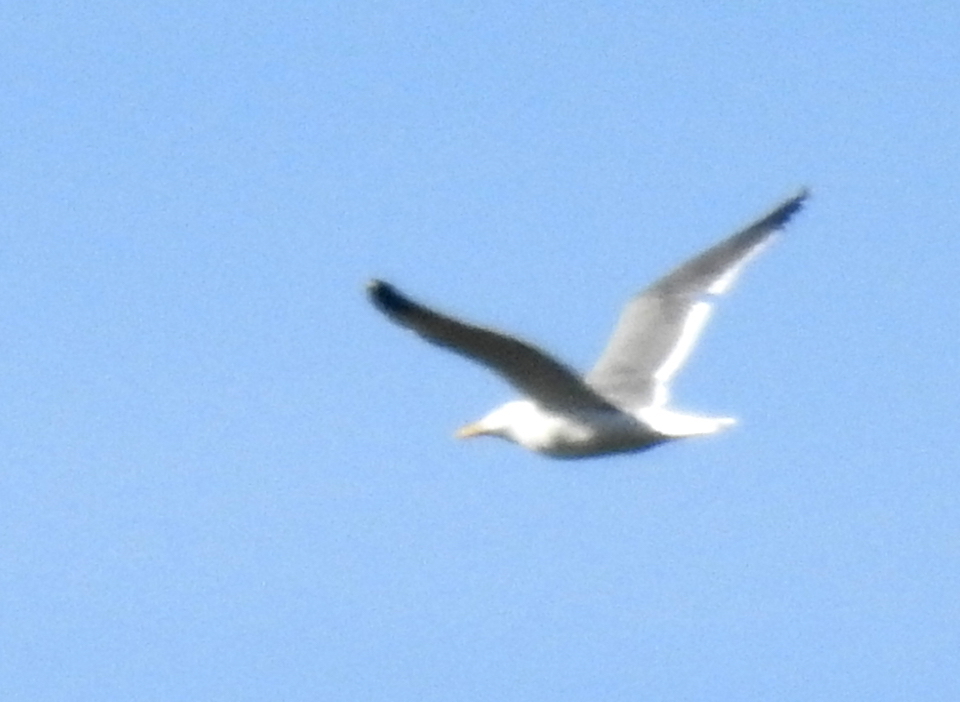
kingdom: Animalia
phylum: Chordata
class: Aves
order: Charadriiformes
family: Laridae
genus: Larus
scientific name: Larus occidentalis
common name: Western gull
